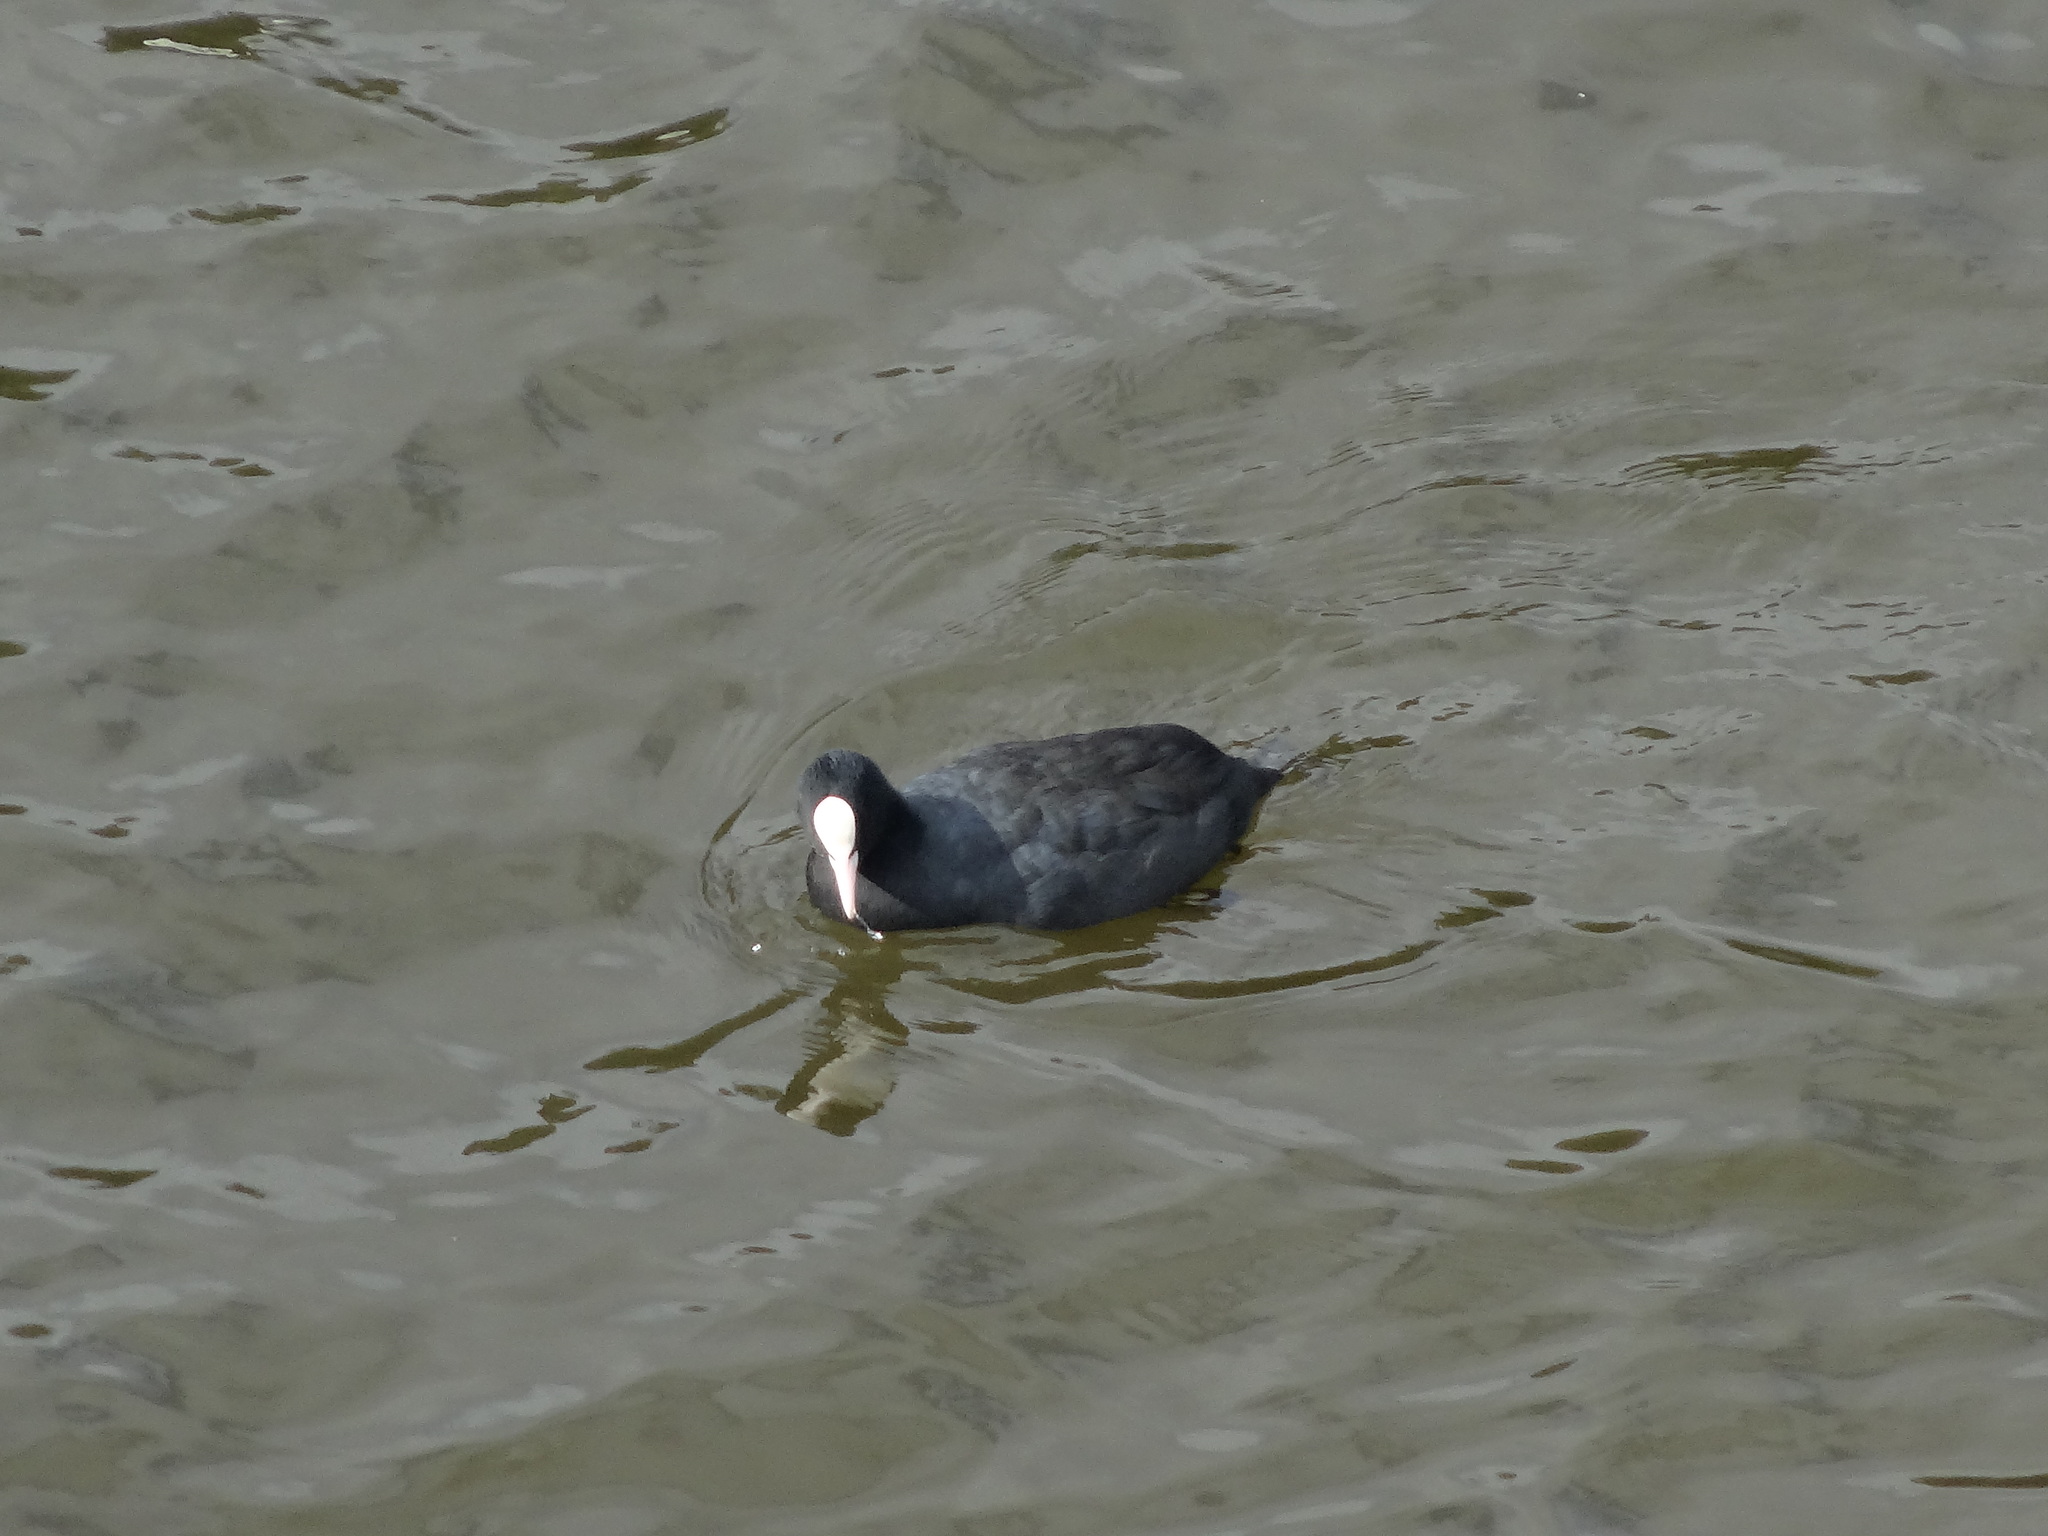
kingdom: Animalia
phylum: Chordata
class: Aves
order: Gruiformes
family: Rallidae
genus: Fulica
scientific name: Fulica atra
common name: Eurasian coot
